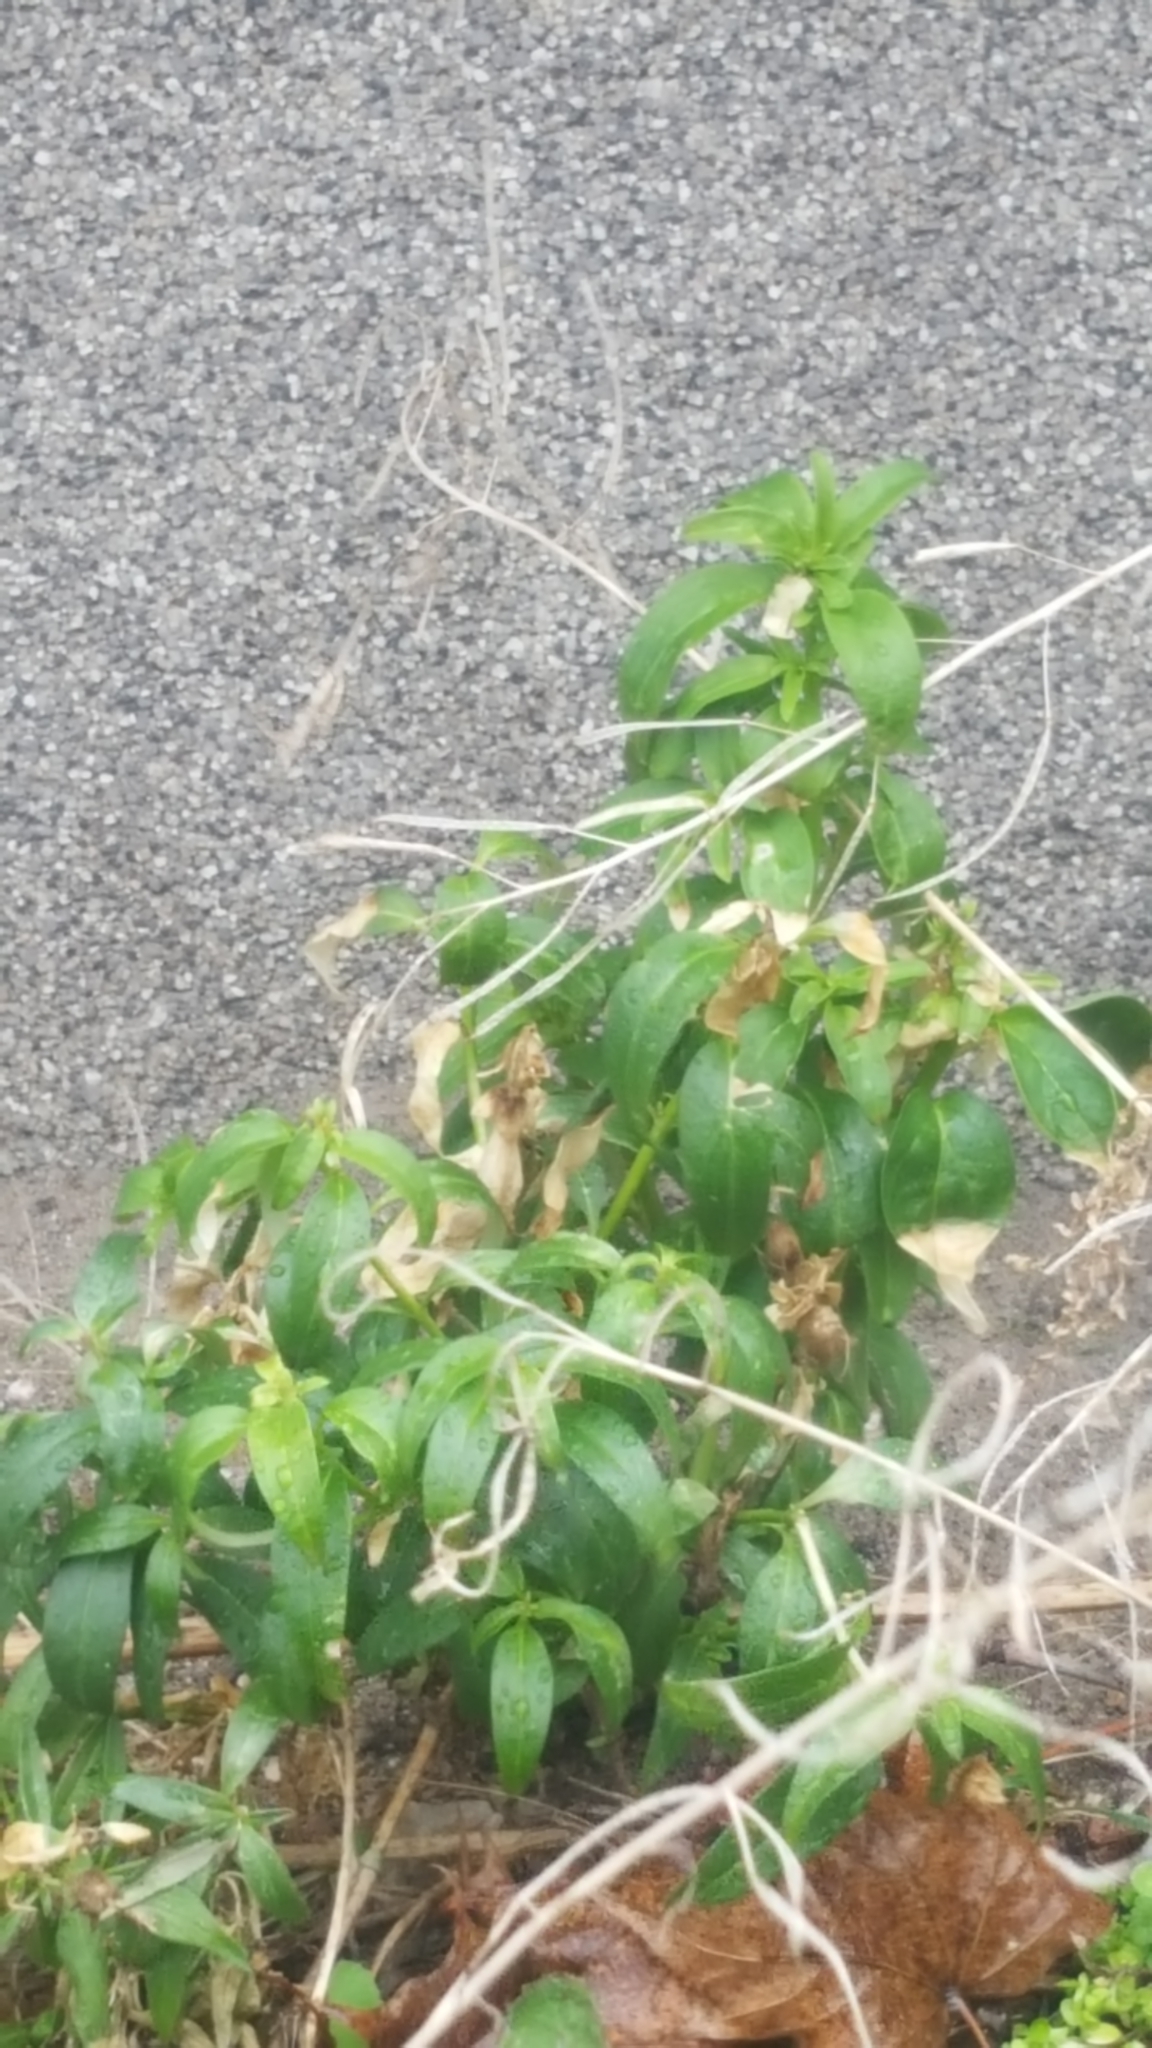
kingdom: Plantae
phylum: Tracheophyta
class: Magnoliopsida
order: Lamiales
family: Plantaginaceae
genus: Antirrhinum
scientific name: Antirrhinum majus
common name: Snapdragon
